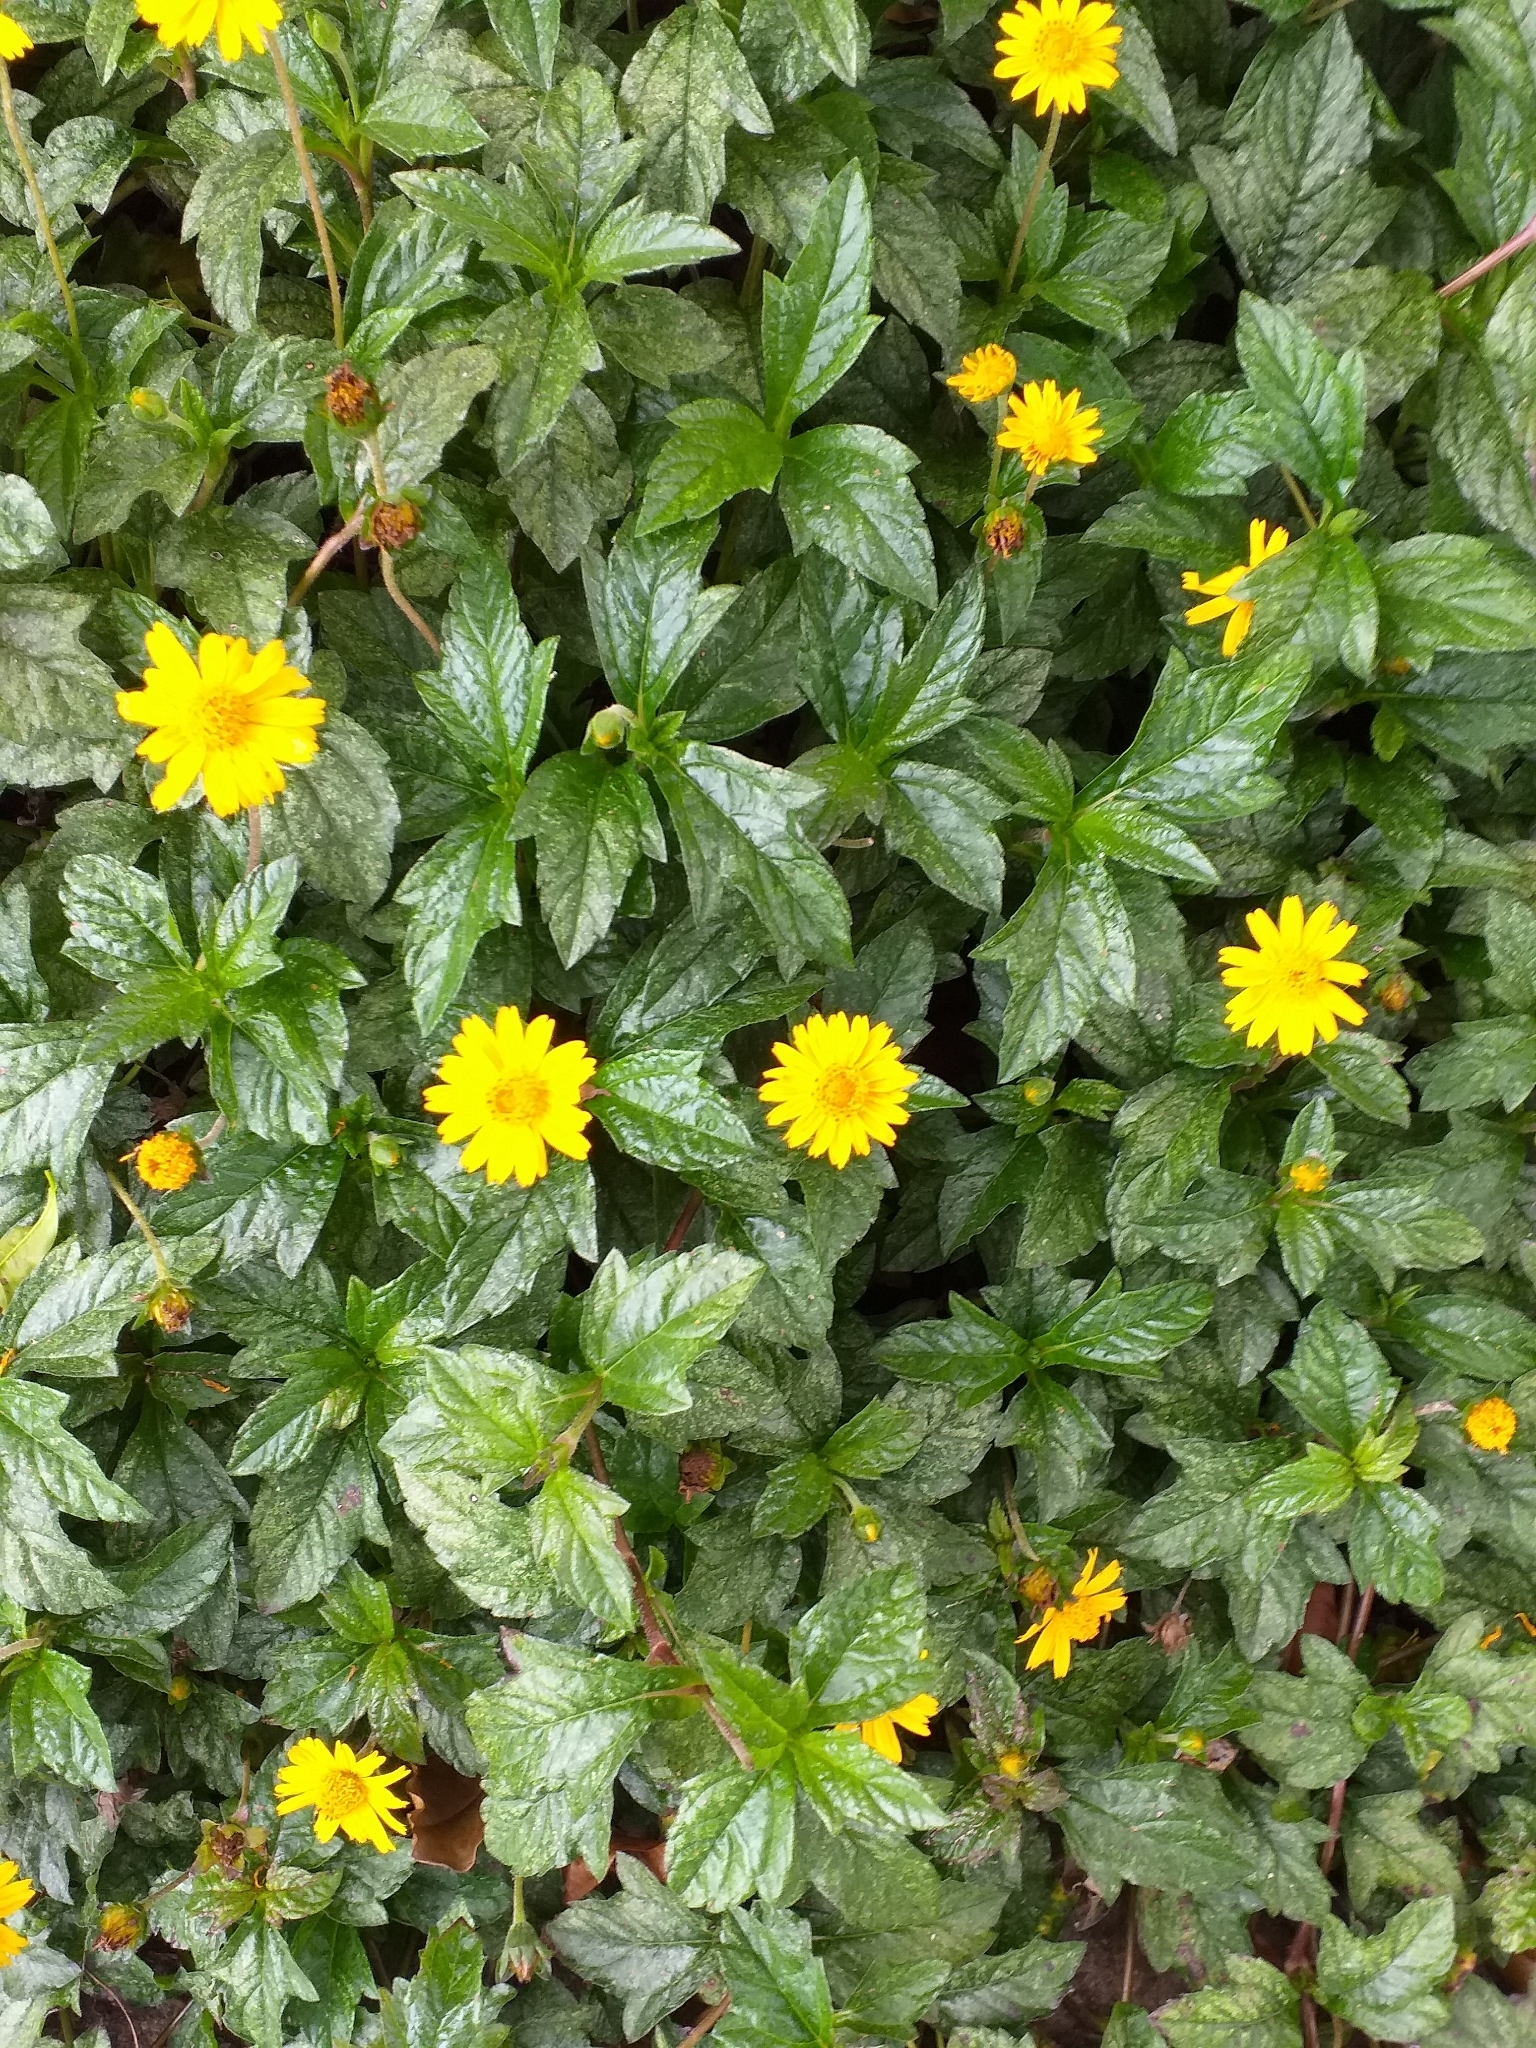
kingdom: Plantae
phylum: Tracheophyta
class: Magnoliopsida
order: Asterales
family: Asteraceae
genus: Sphagneticola
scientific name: Sphagneticola trilobata
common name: Bay biscayne creeping-oxeye
